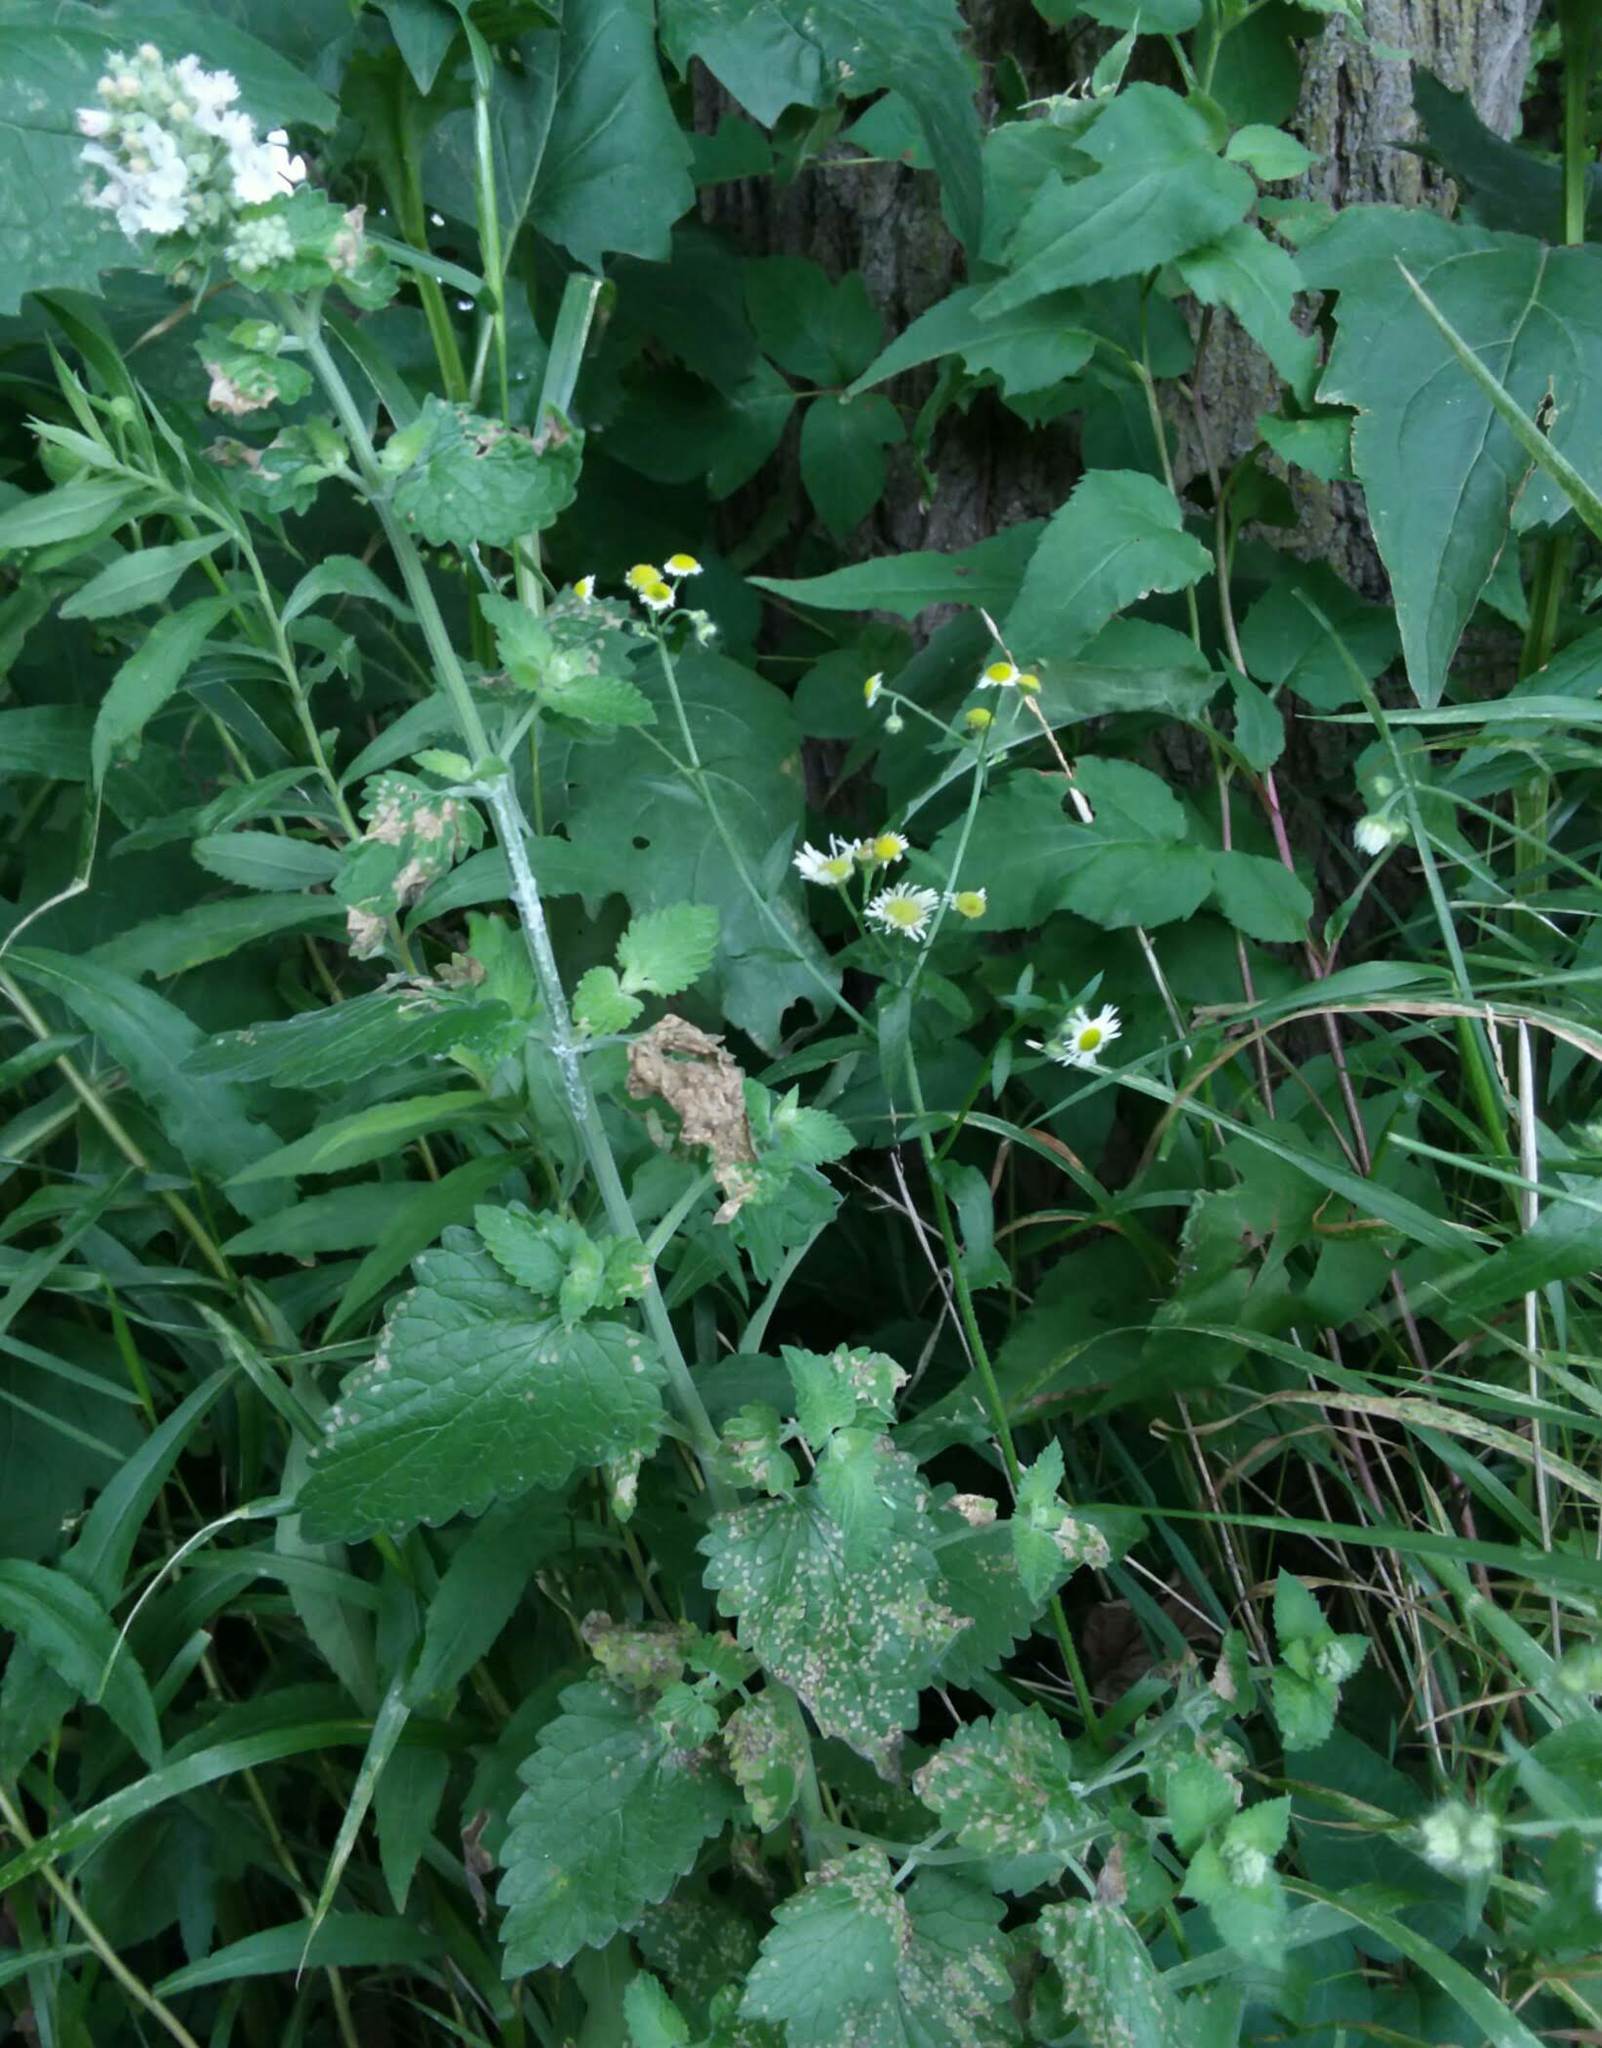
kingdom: Plantae
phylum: Tracheophyta
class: Magnoliopsida
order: Lamiales
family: Lamiaceae
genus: Nepeta
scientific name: Nepeta cataria
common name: Catnip
